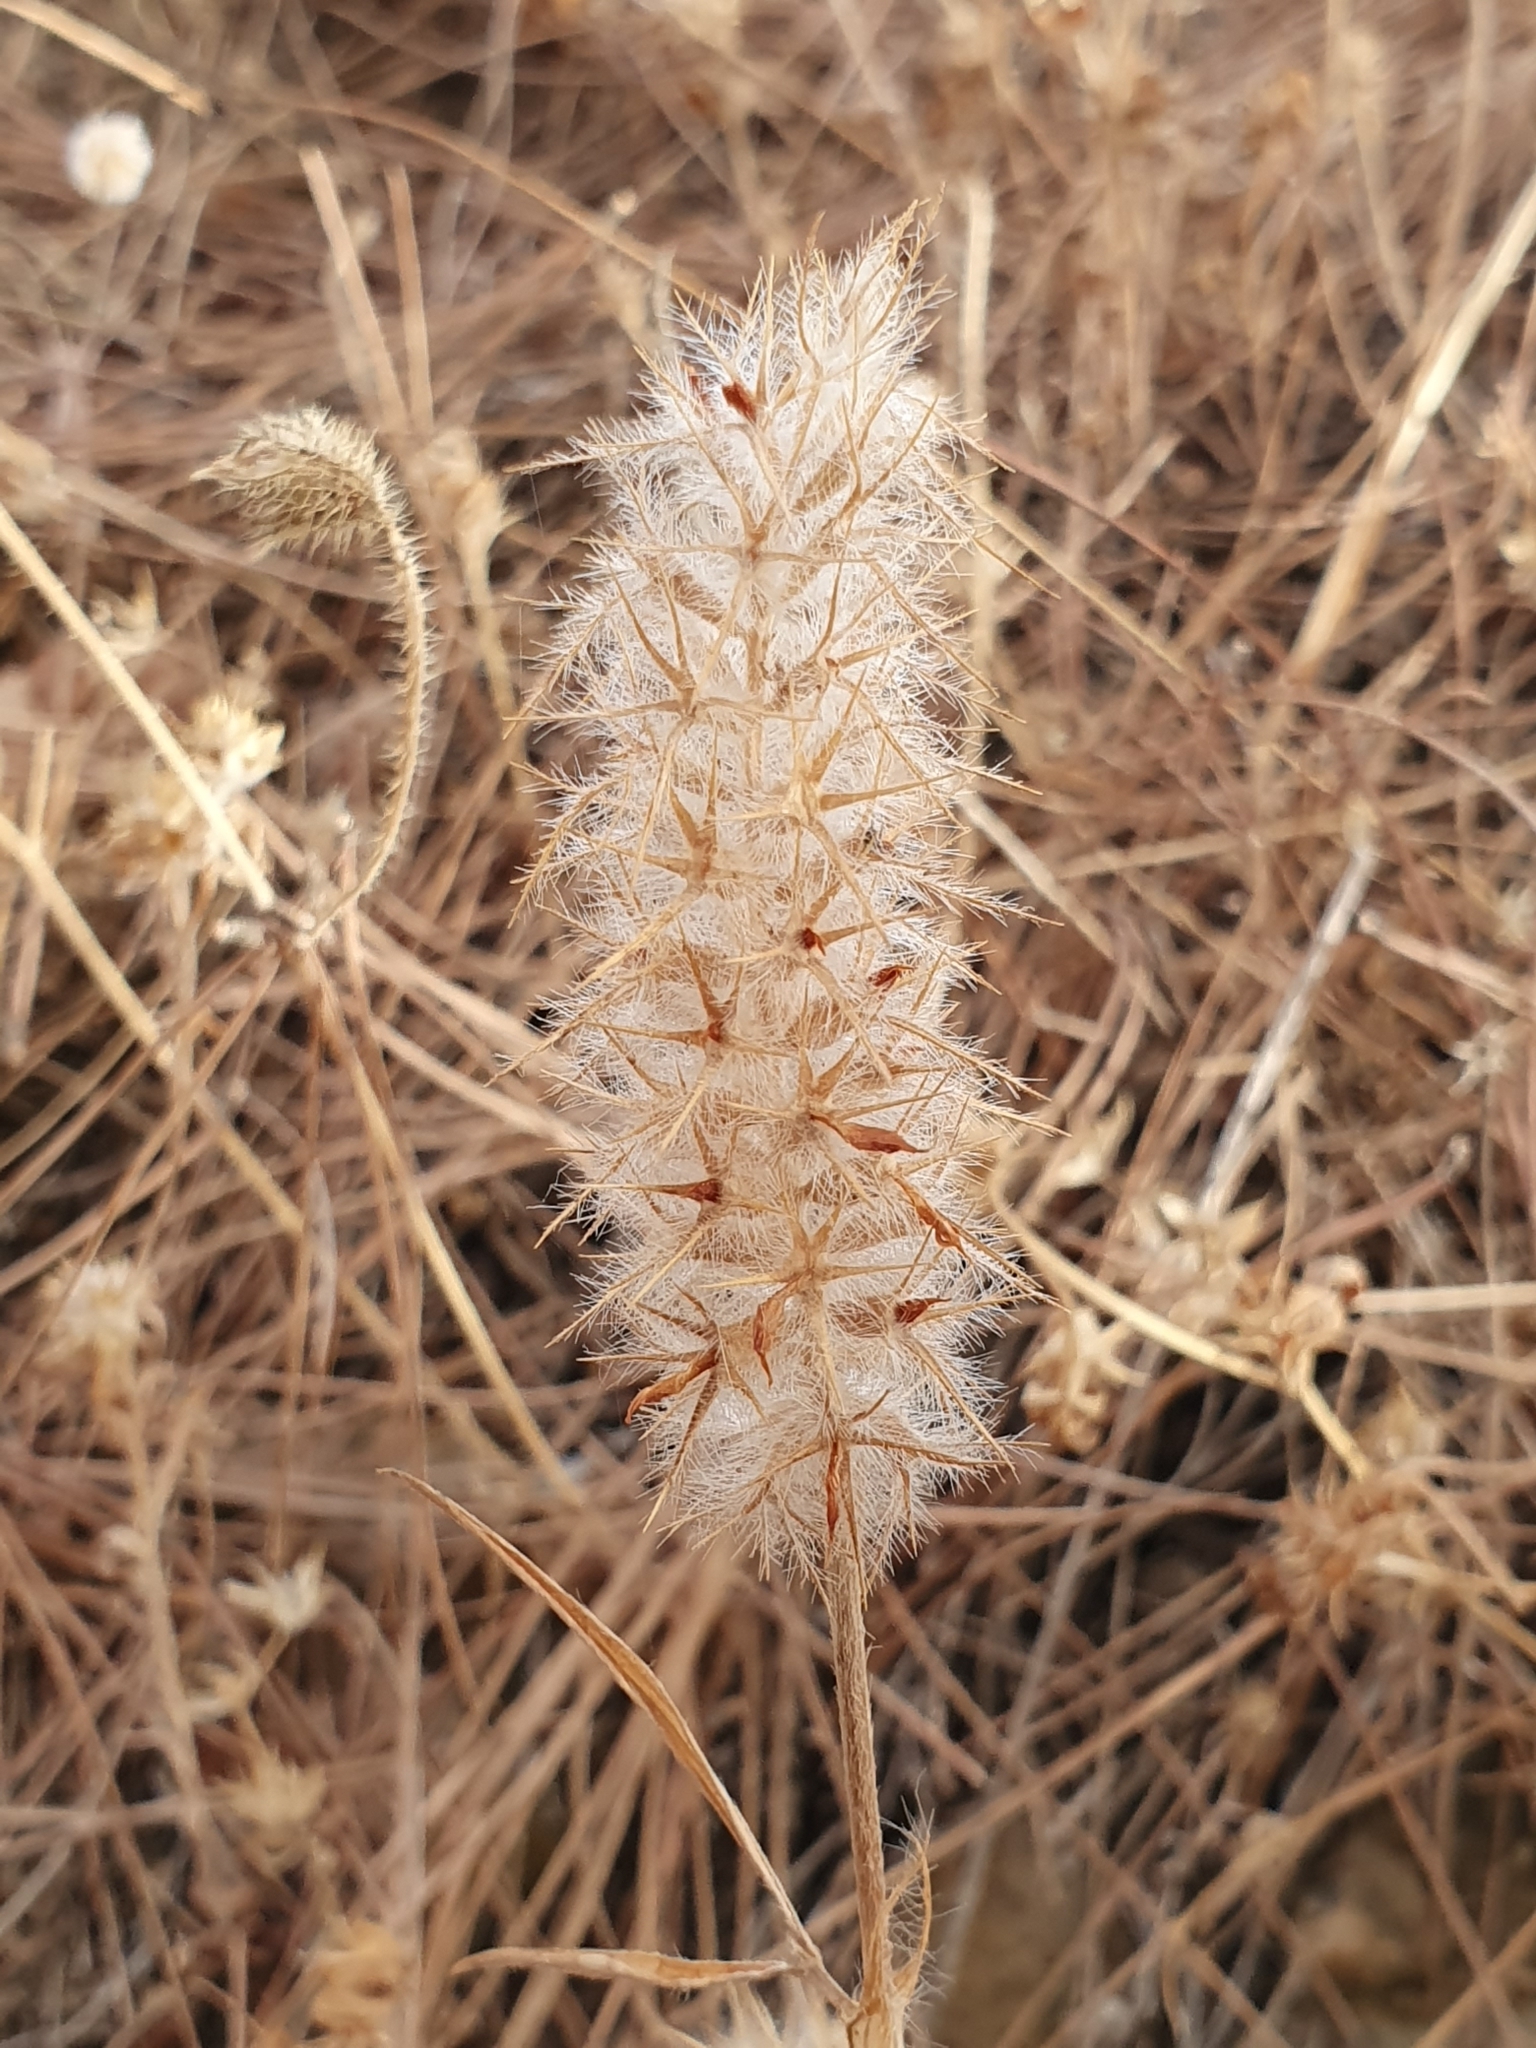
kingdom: Plantae
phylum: Tracheophyta
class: Magnoliopsida
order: Fabales
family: Fabaceae
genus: Trifolium
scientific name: Trifolium angustifolium
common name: Narrow clover
